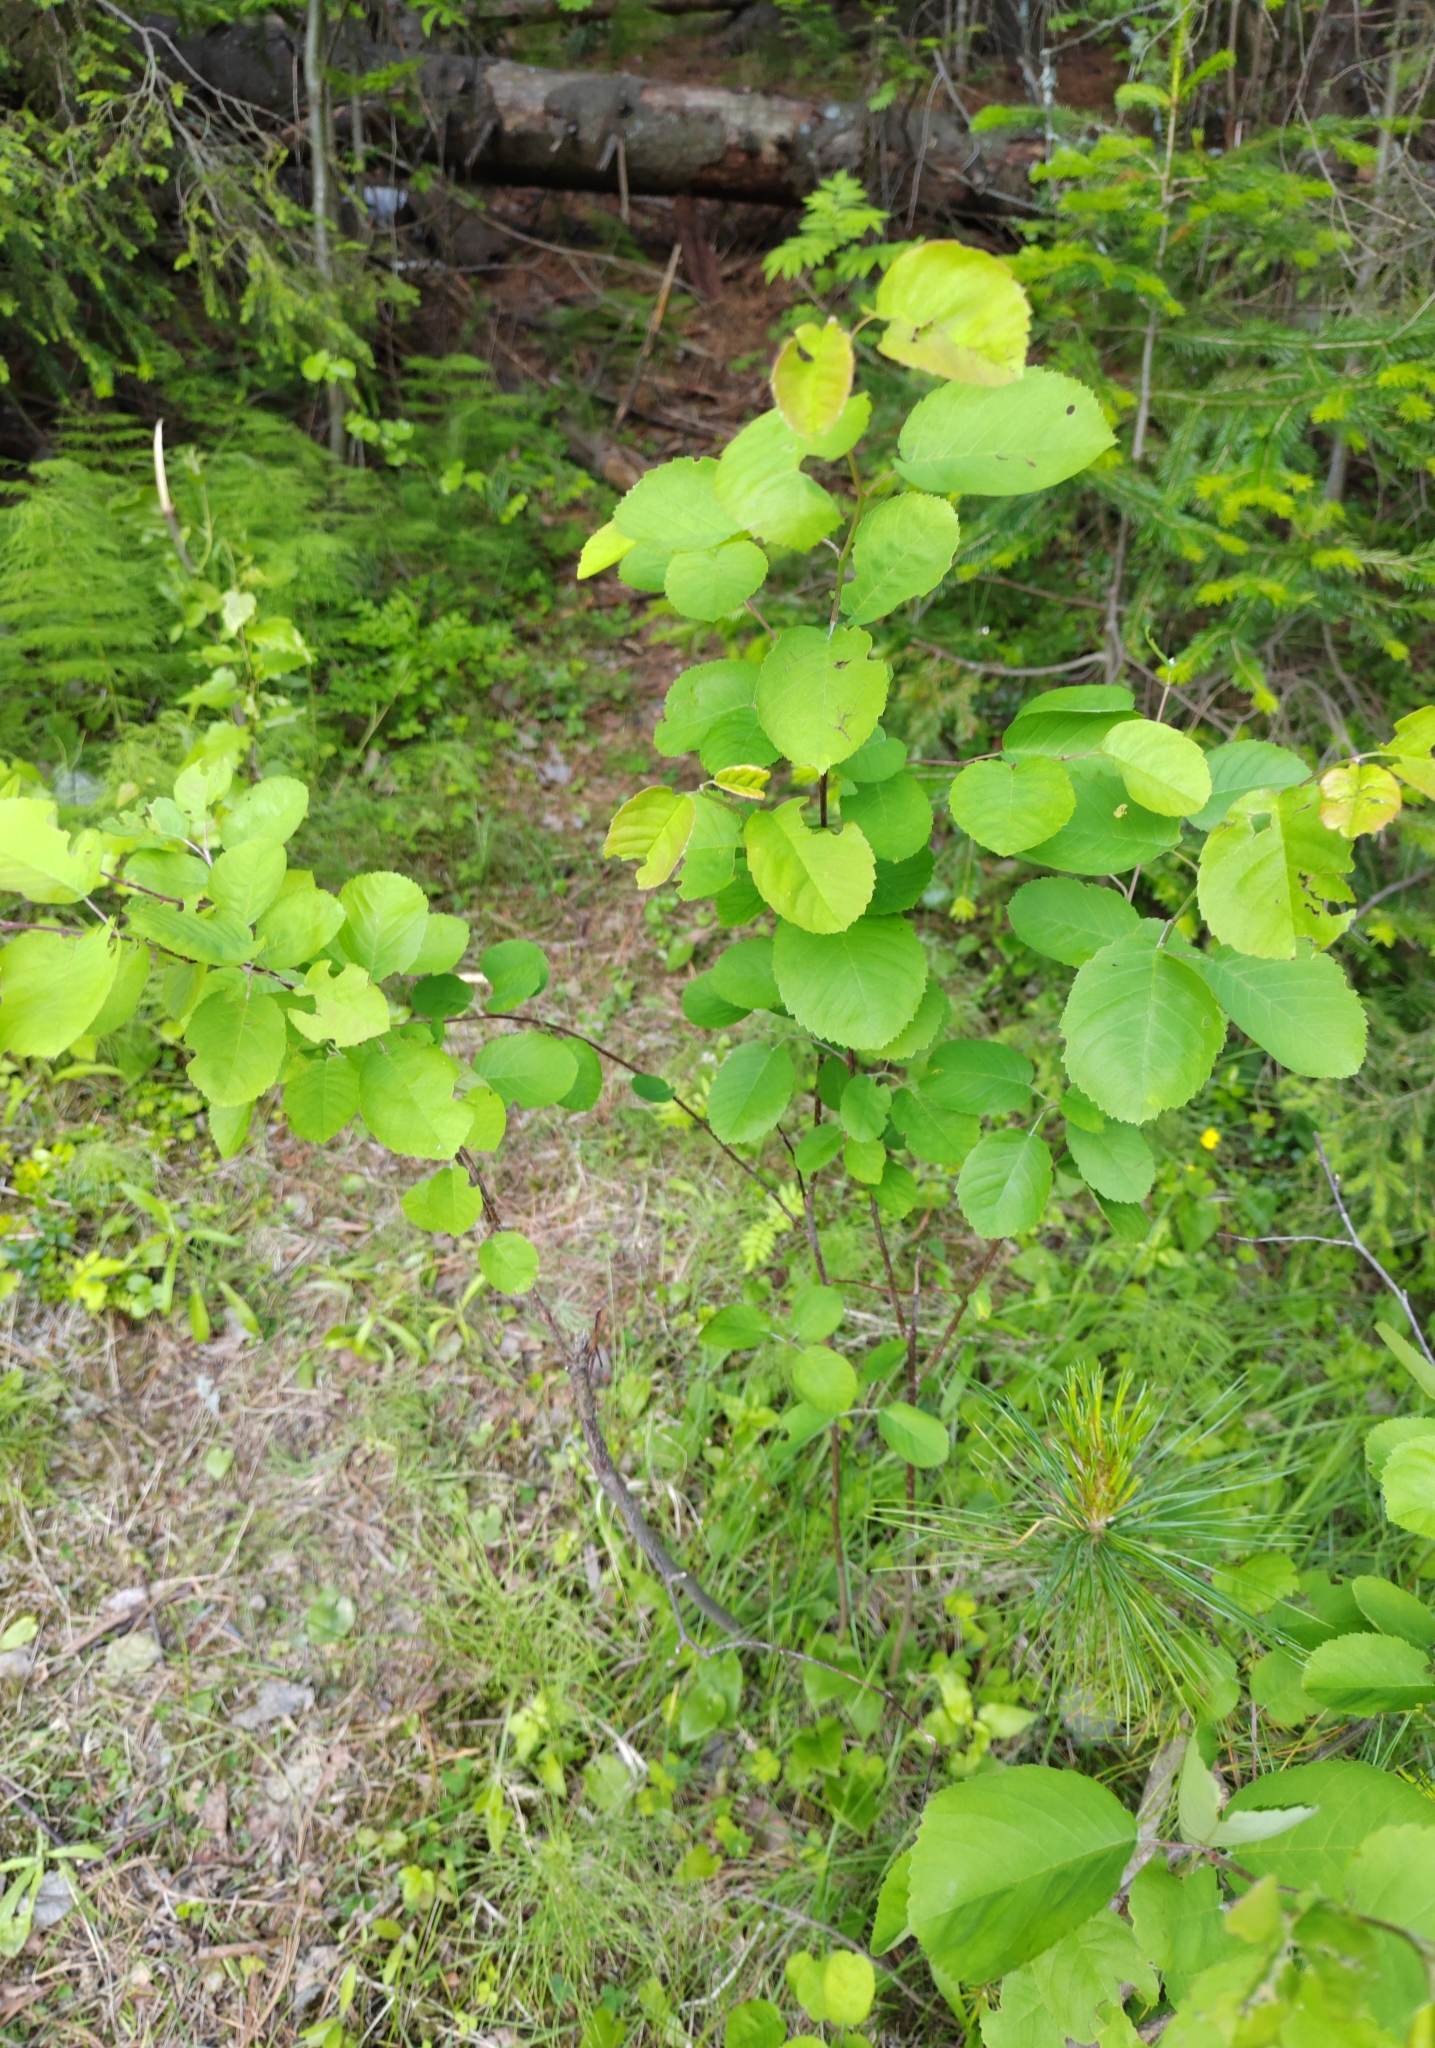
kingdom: Plantae
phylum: Tracheophyta
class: Magnoliopsida
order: Rosales
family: Rosaceae
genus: Amelanchier
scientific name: Amelanchier
